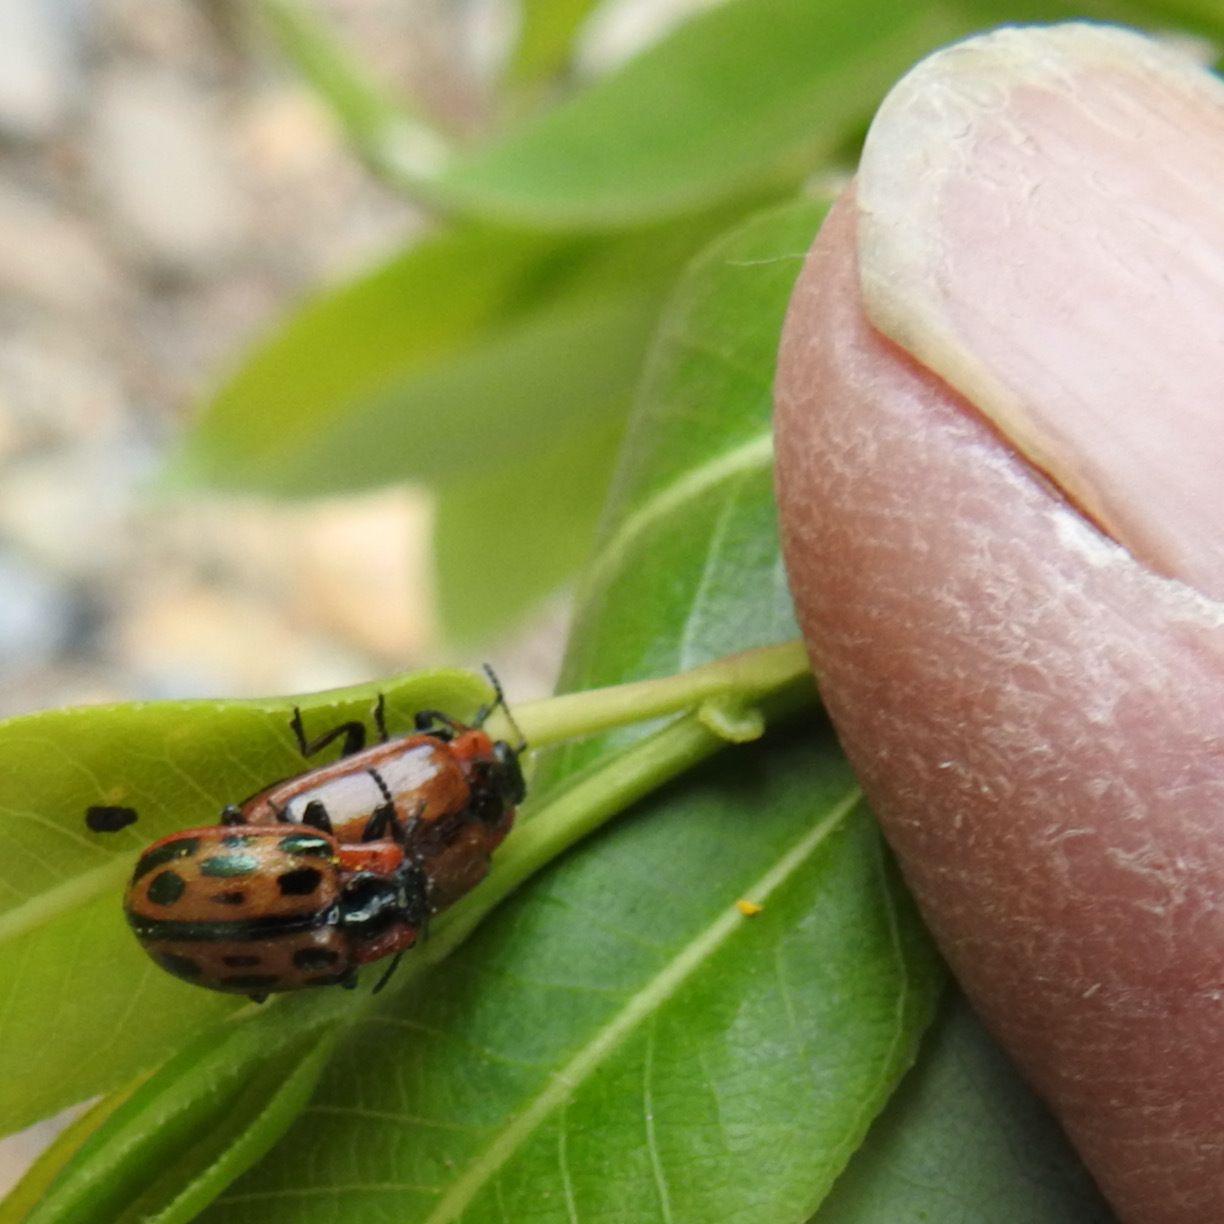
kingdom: Animalia
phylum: Arthropoda
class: Insecta
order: Coleoptera
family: Chrysomelidae
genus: Chrysomela
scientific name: Chrysomela confluens
